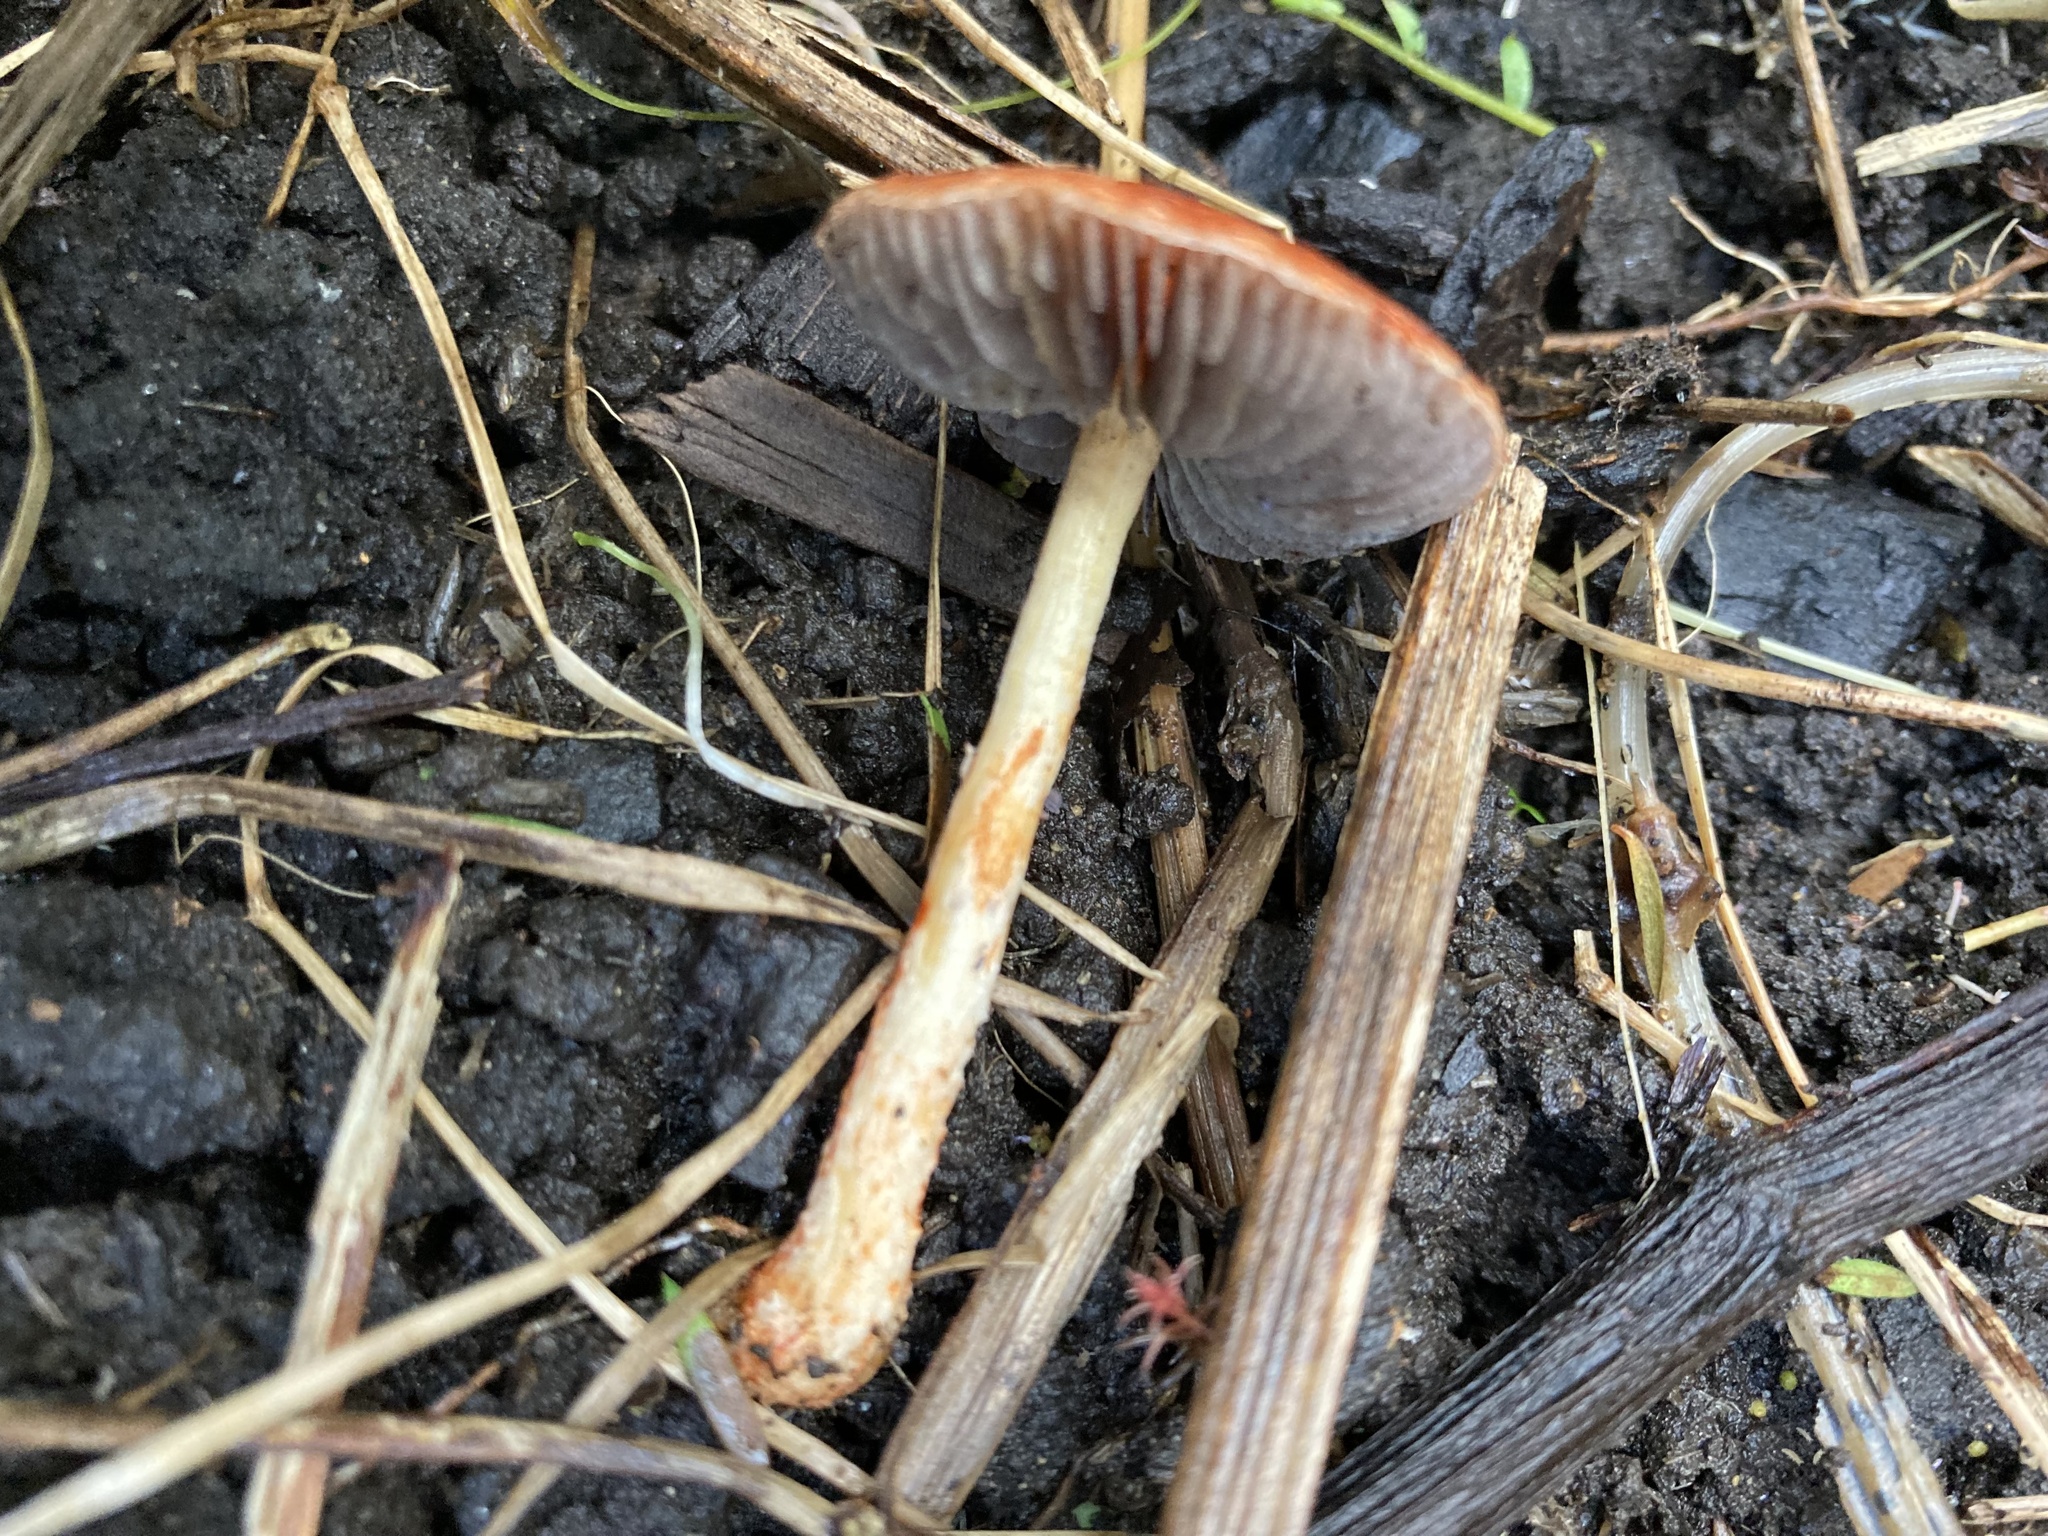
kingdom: Fungi
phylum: Basidiomycota
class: Agaricomycetes
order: Agaricales
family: Strophariaceae
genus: Leratiomyces
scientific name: Leratiomyces ceres
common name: Redlead roundhead
